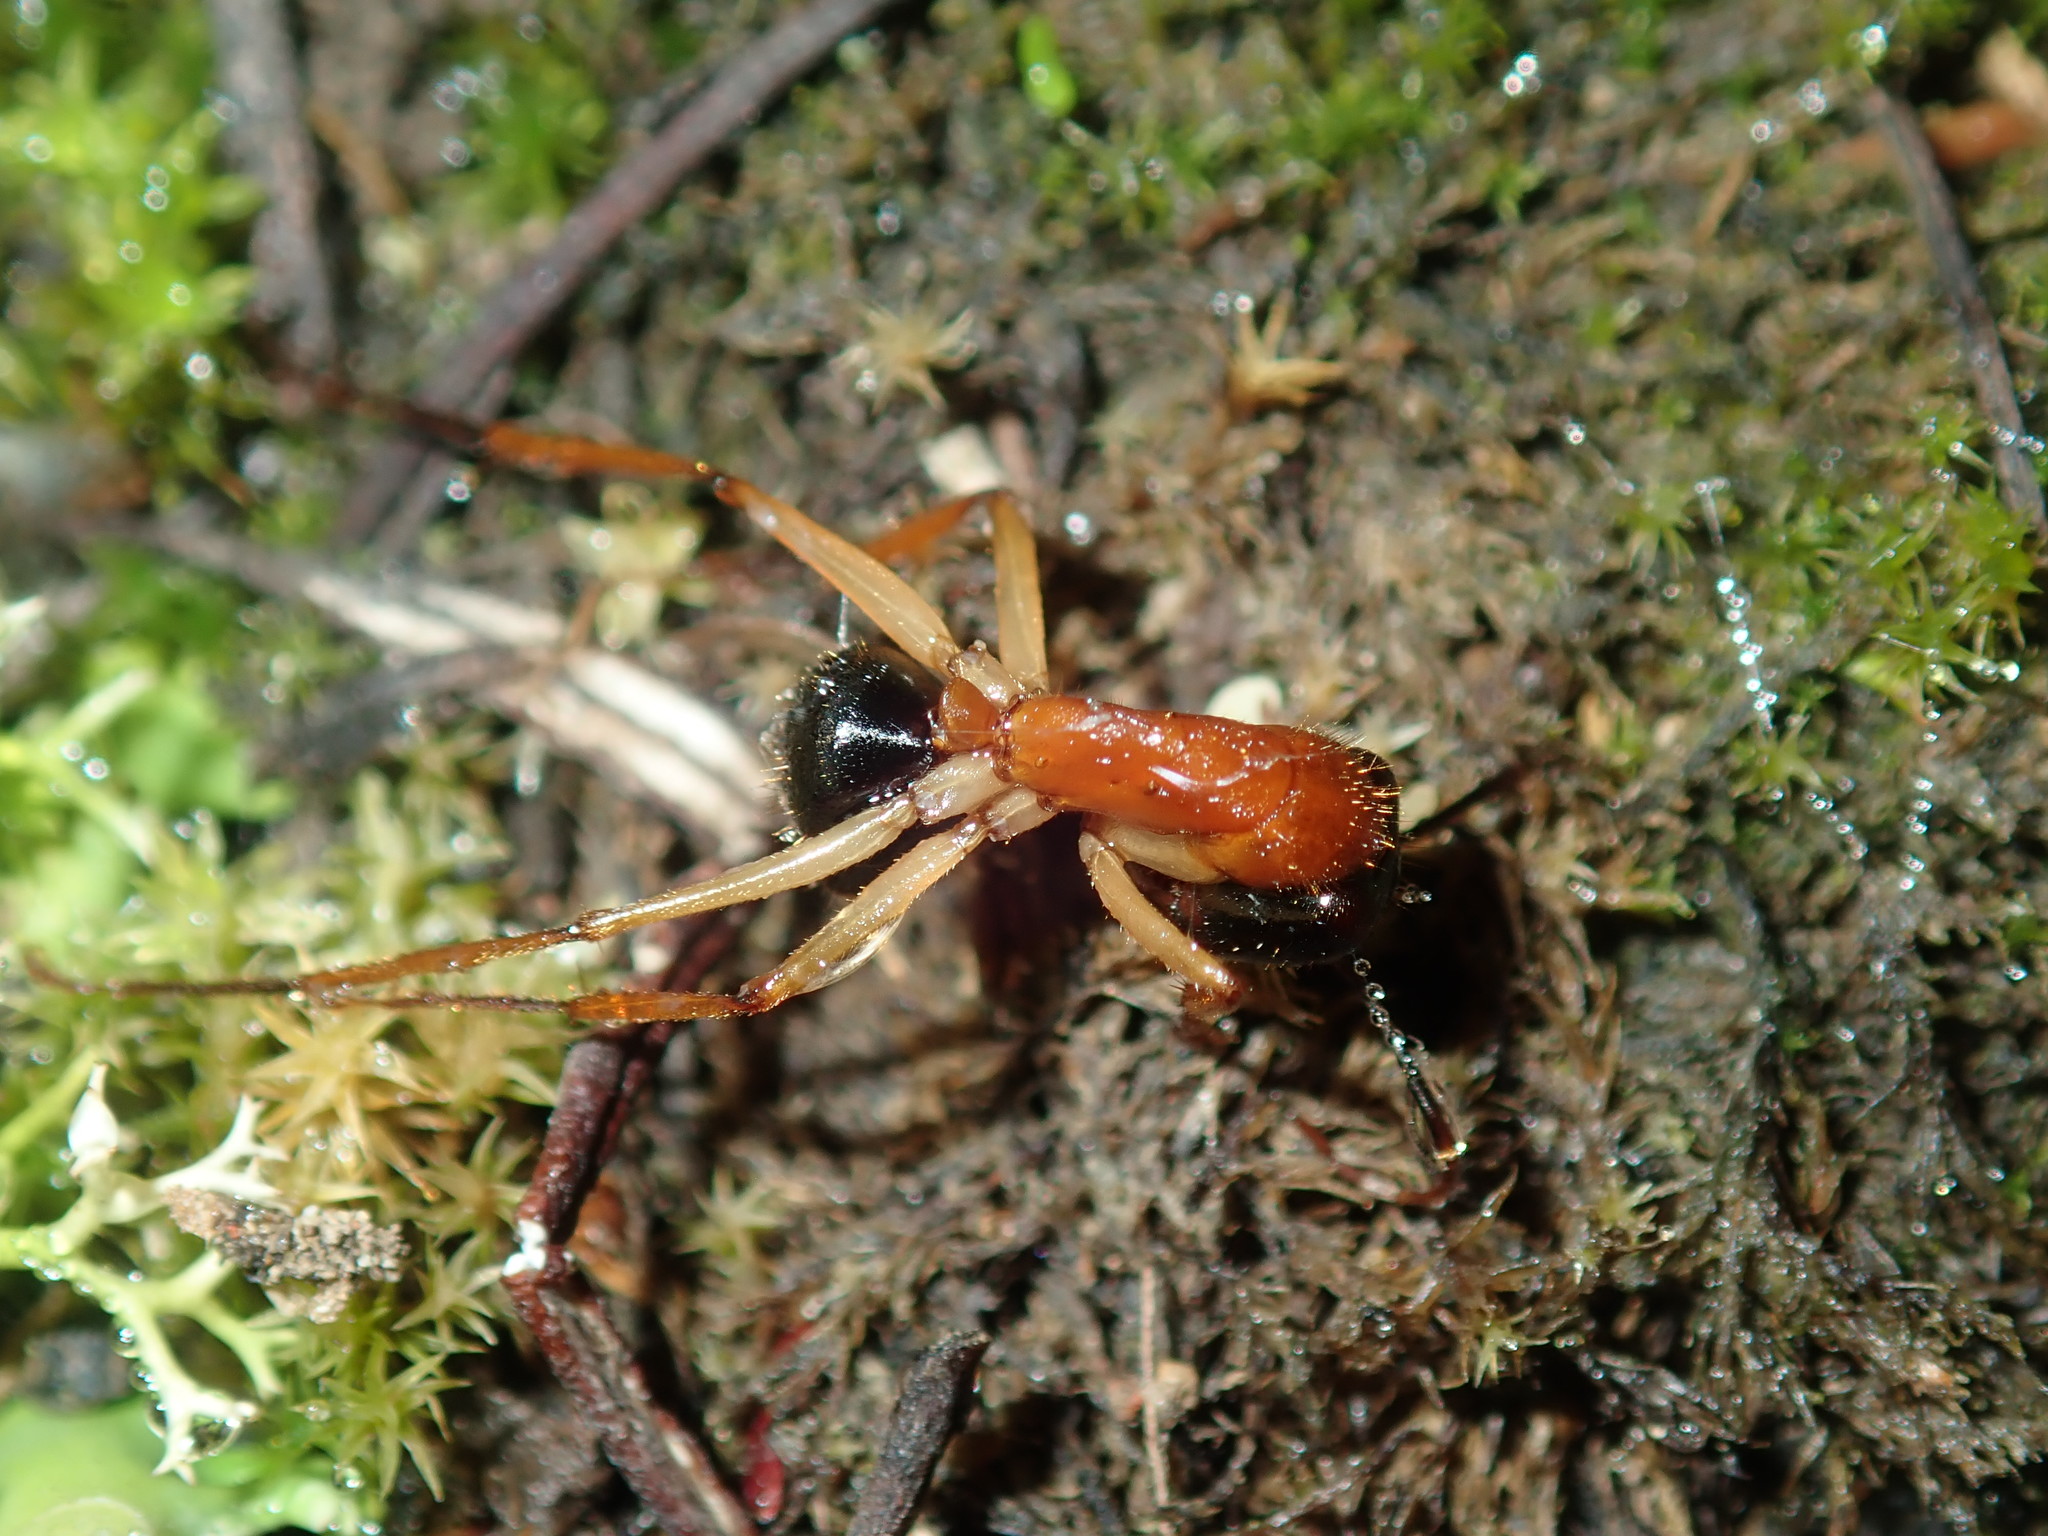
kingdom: Animalia
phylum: Arthropoda
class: Insecta
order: Hymenoptera
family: Formicidae
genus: Camponotus
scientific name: Camponotus nigriceps
